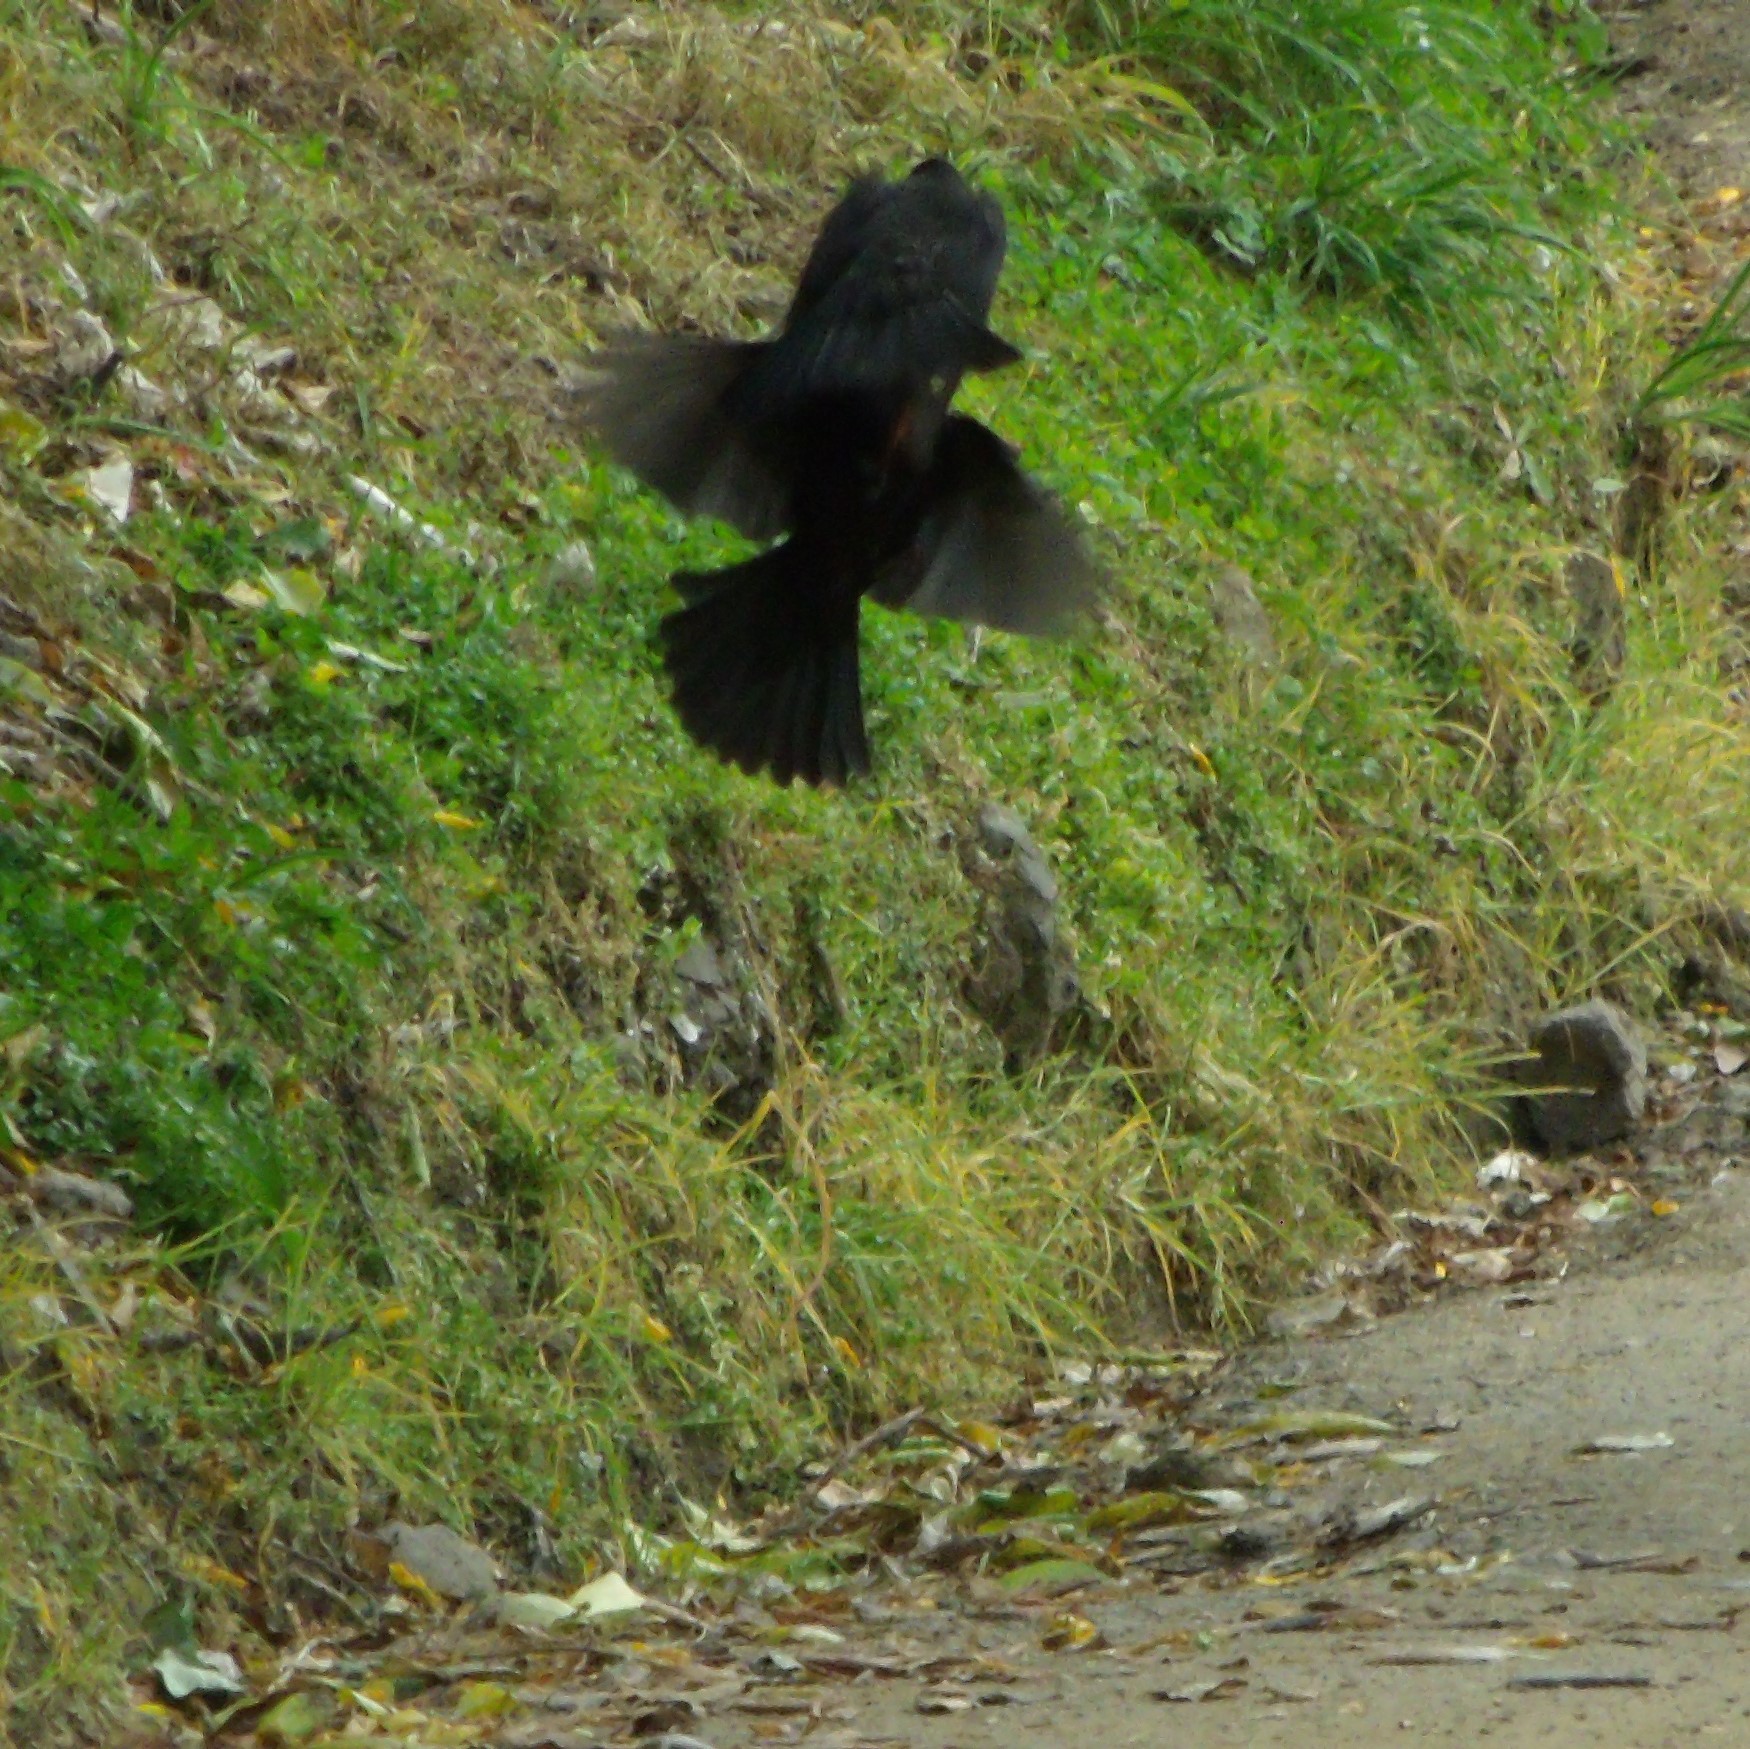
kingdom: Animalia
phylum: Chordata
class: Aves
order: Passeriformes
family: Turdidae
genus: Turdus
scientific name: Turdus merula
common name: Common blackbird
